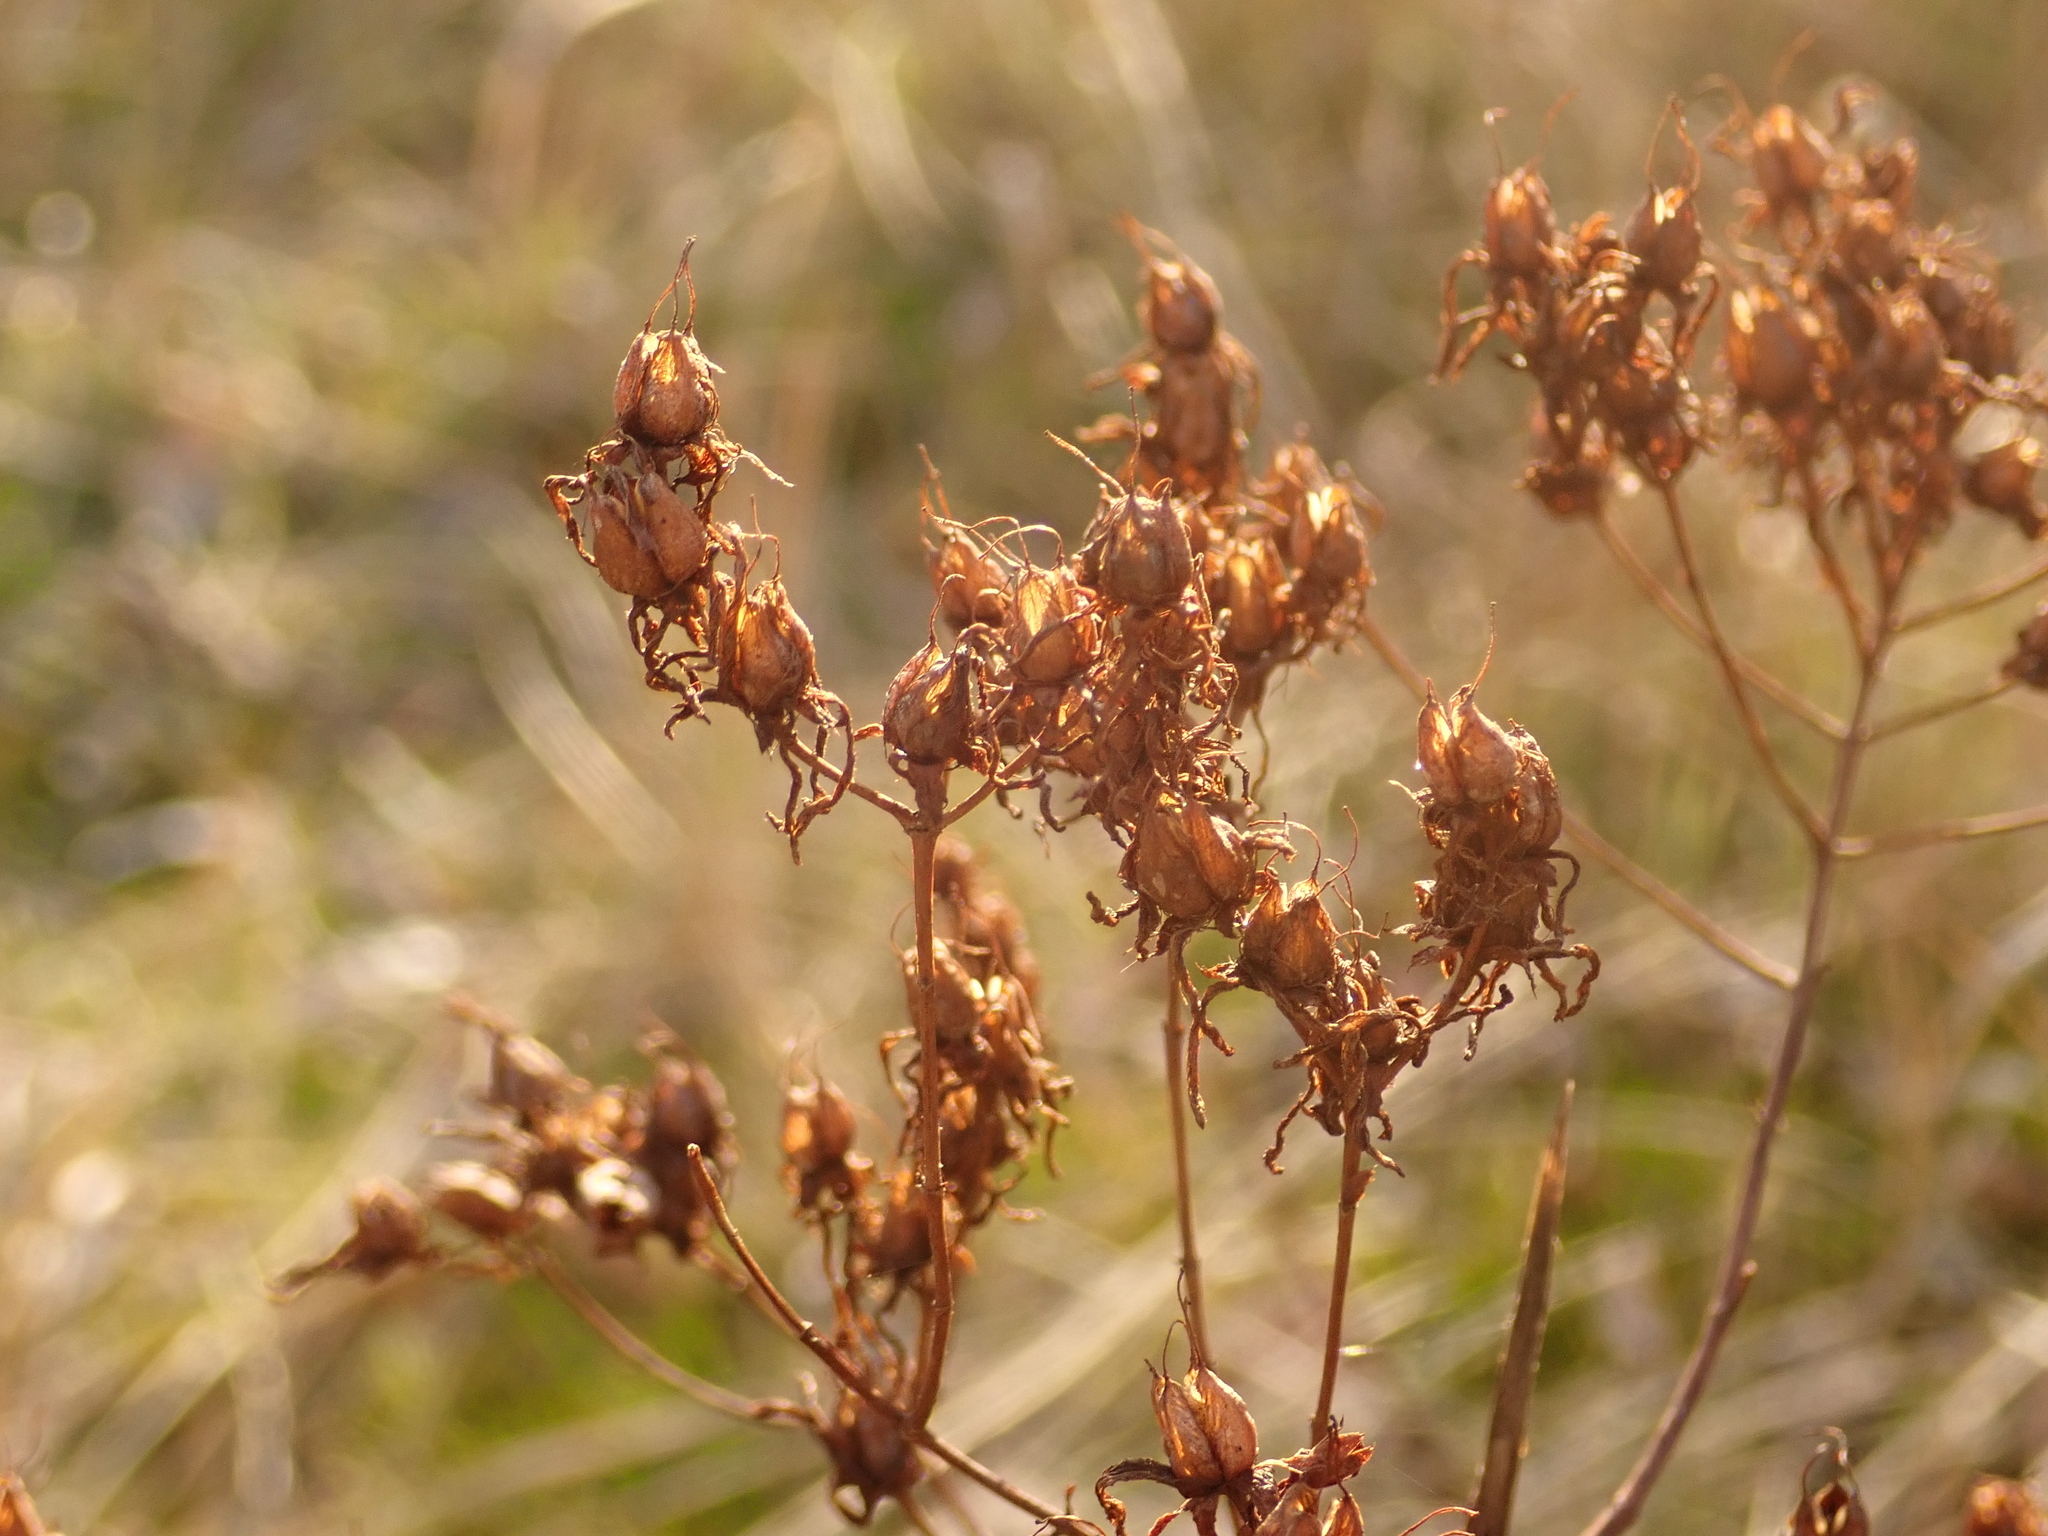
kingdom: Plantae
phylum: Tracheophyta
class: Magnoliopsida
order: Malpighiales
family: Hypericaceae
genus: Hypericum
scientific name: Hypericum perforatum
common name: Common st. johnswort
